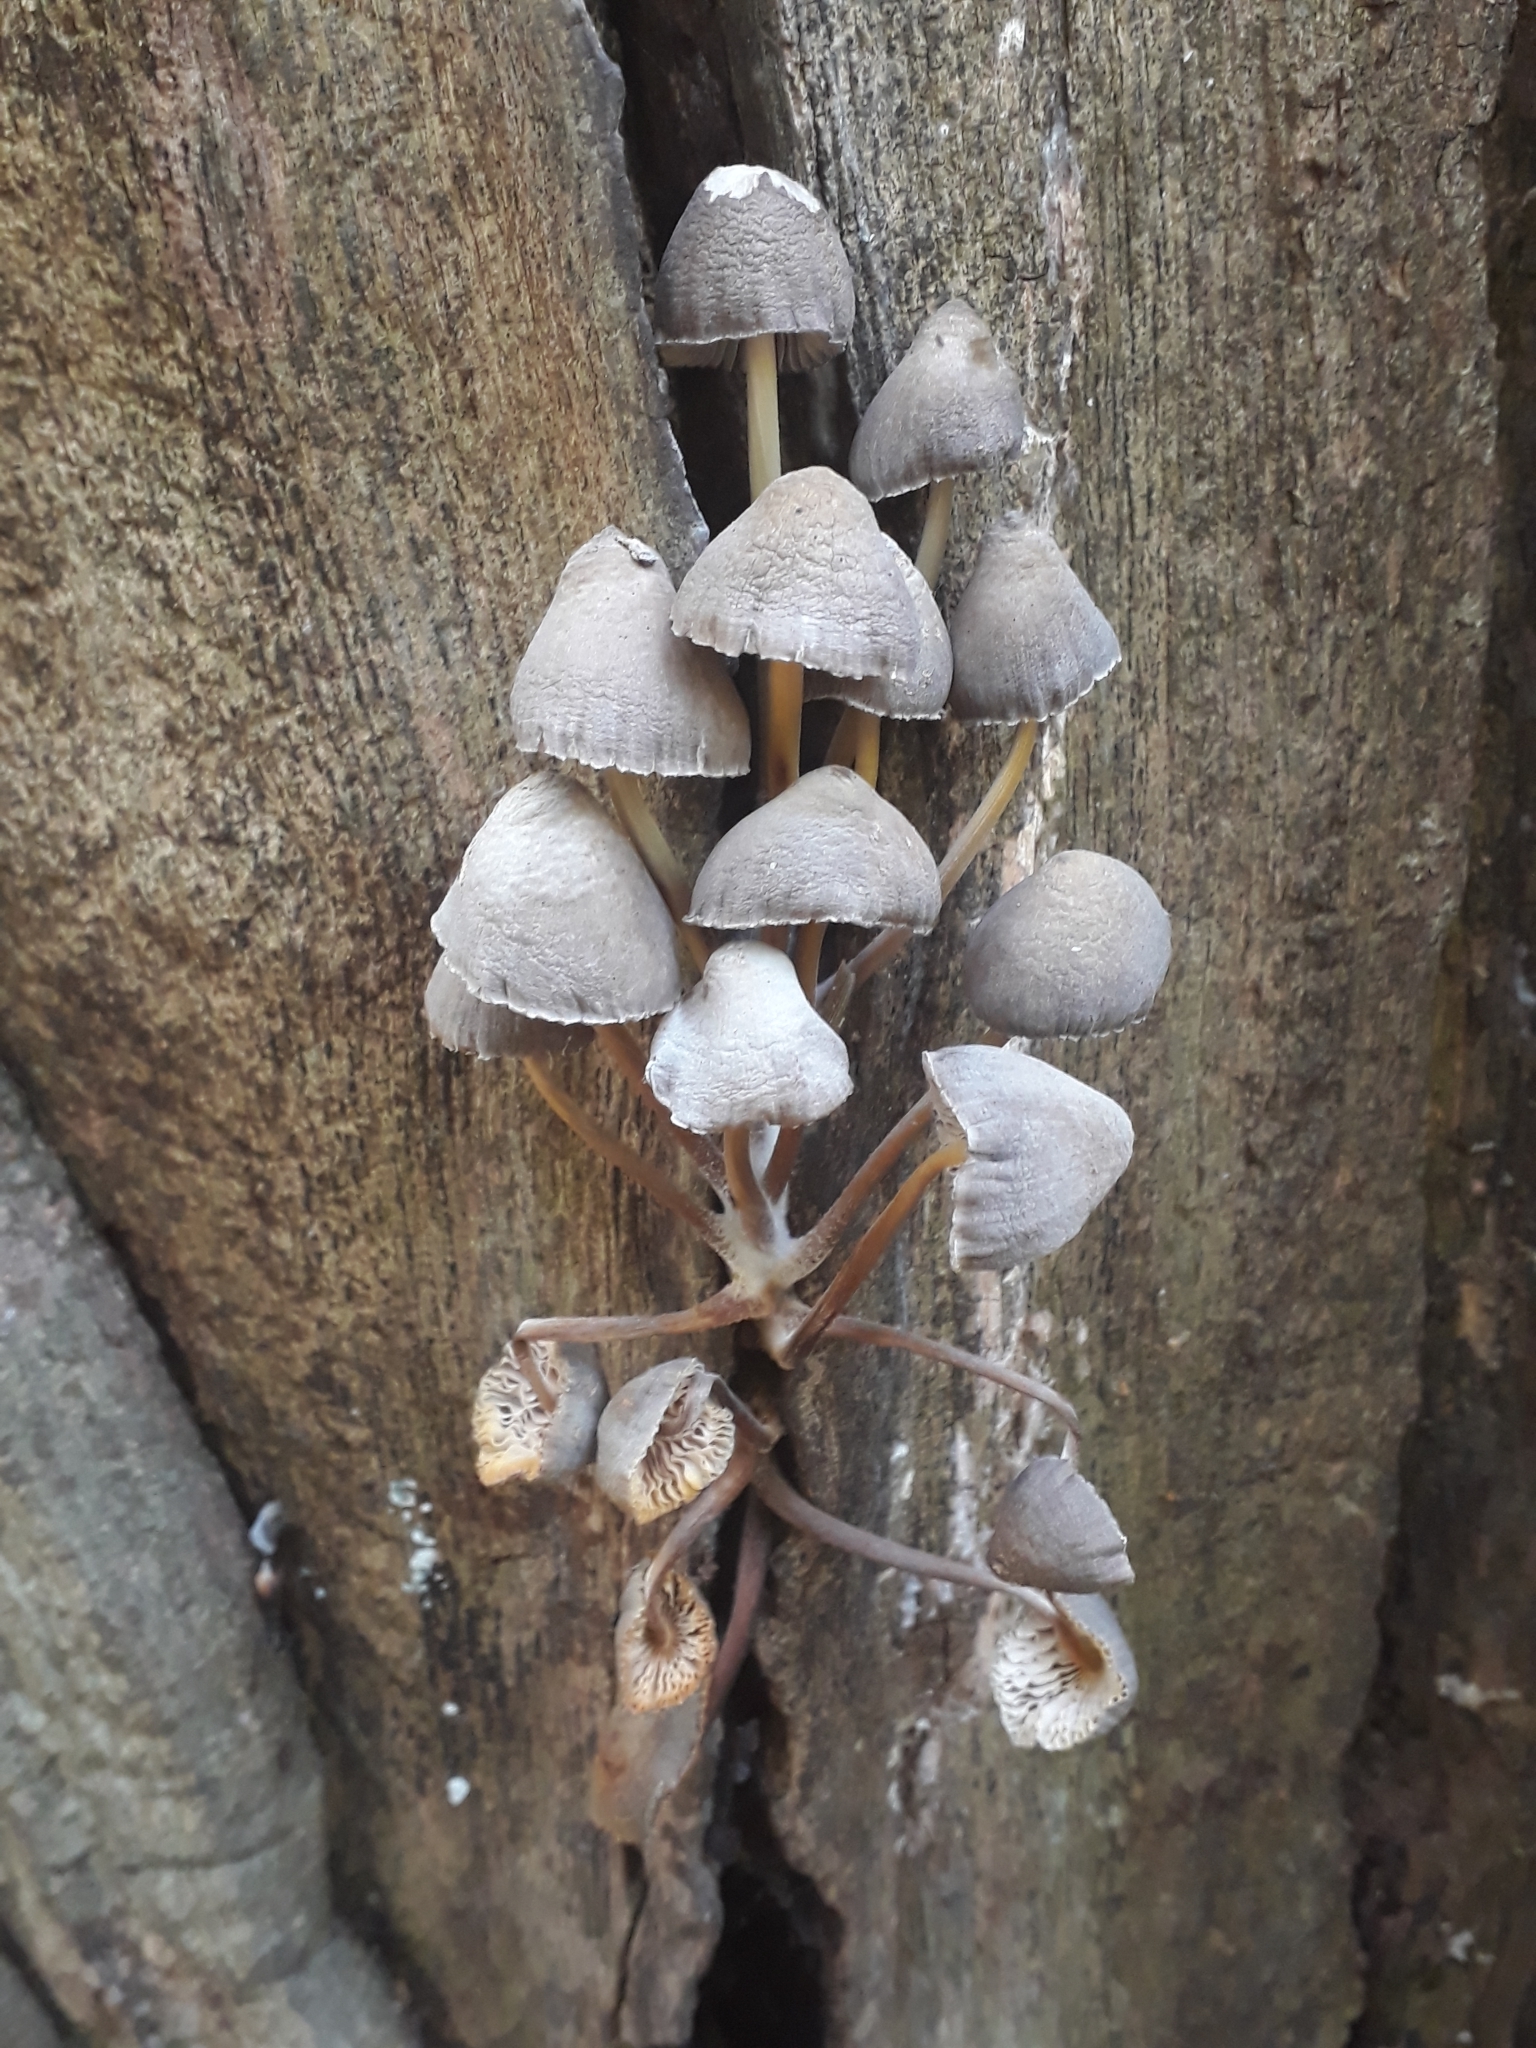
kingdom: Fungi
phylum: Basidiomycota
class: Agaricomycetes
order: Agaricales
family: Mycenaceae
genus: Mycena
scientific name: Mycena inclinata
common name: Clustered bonnet
